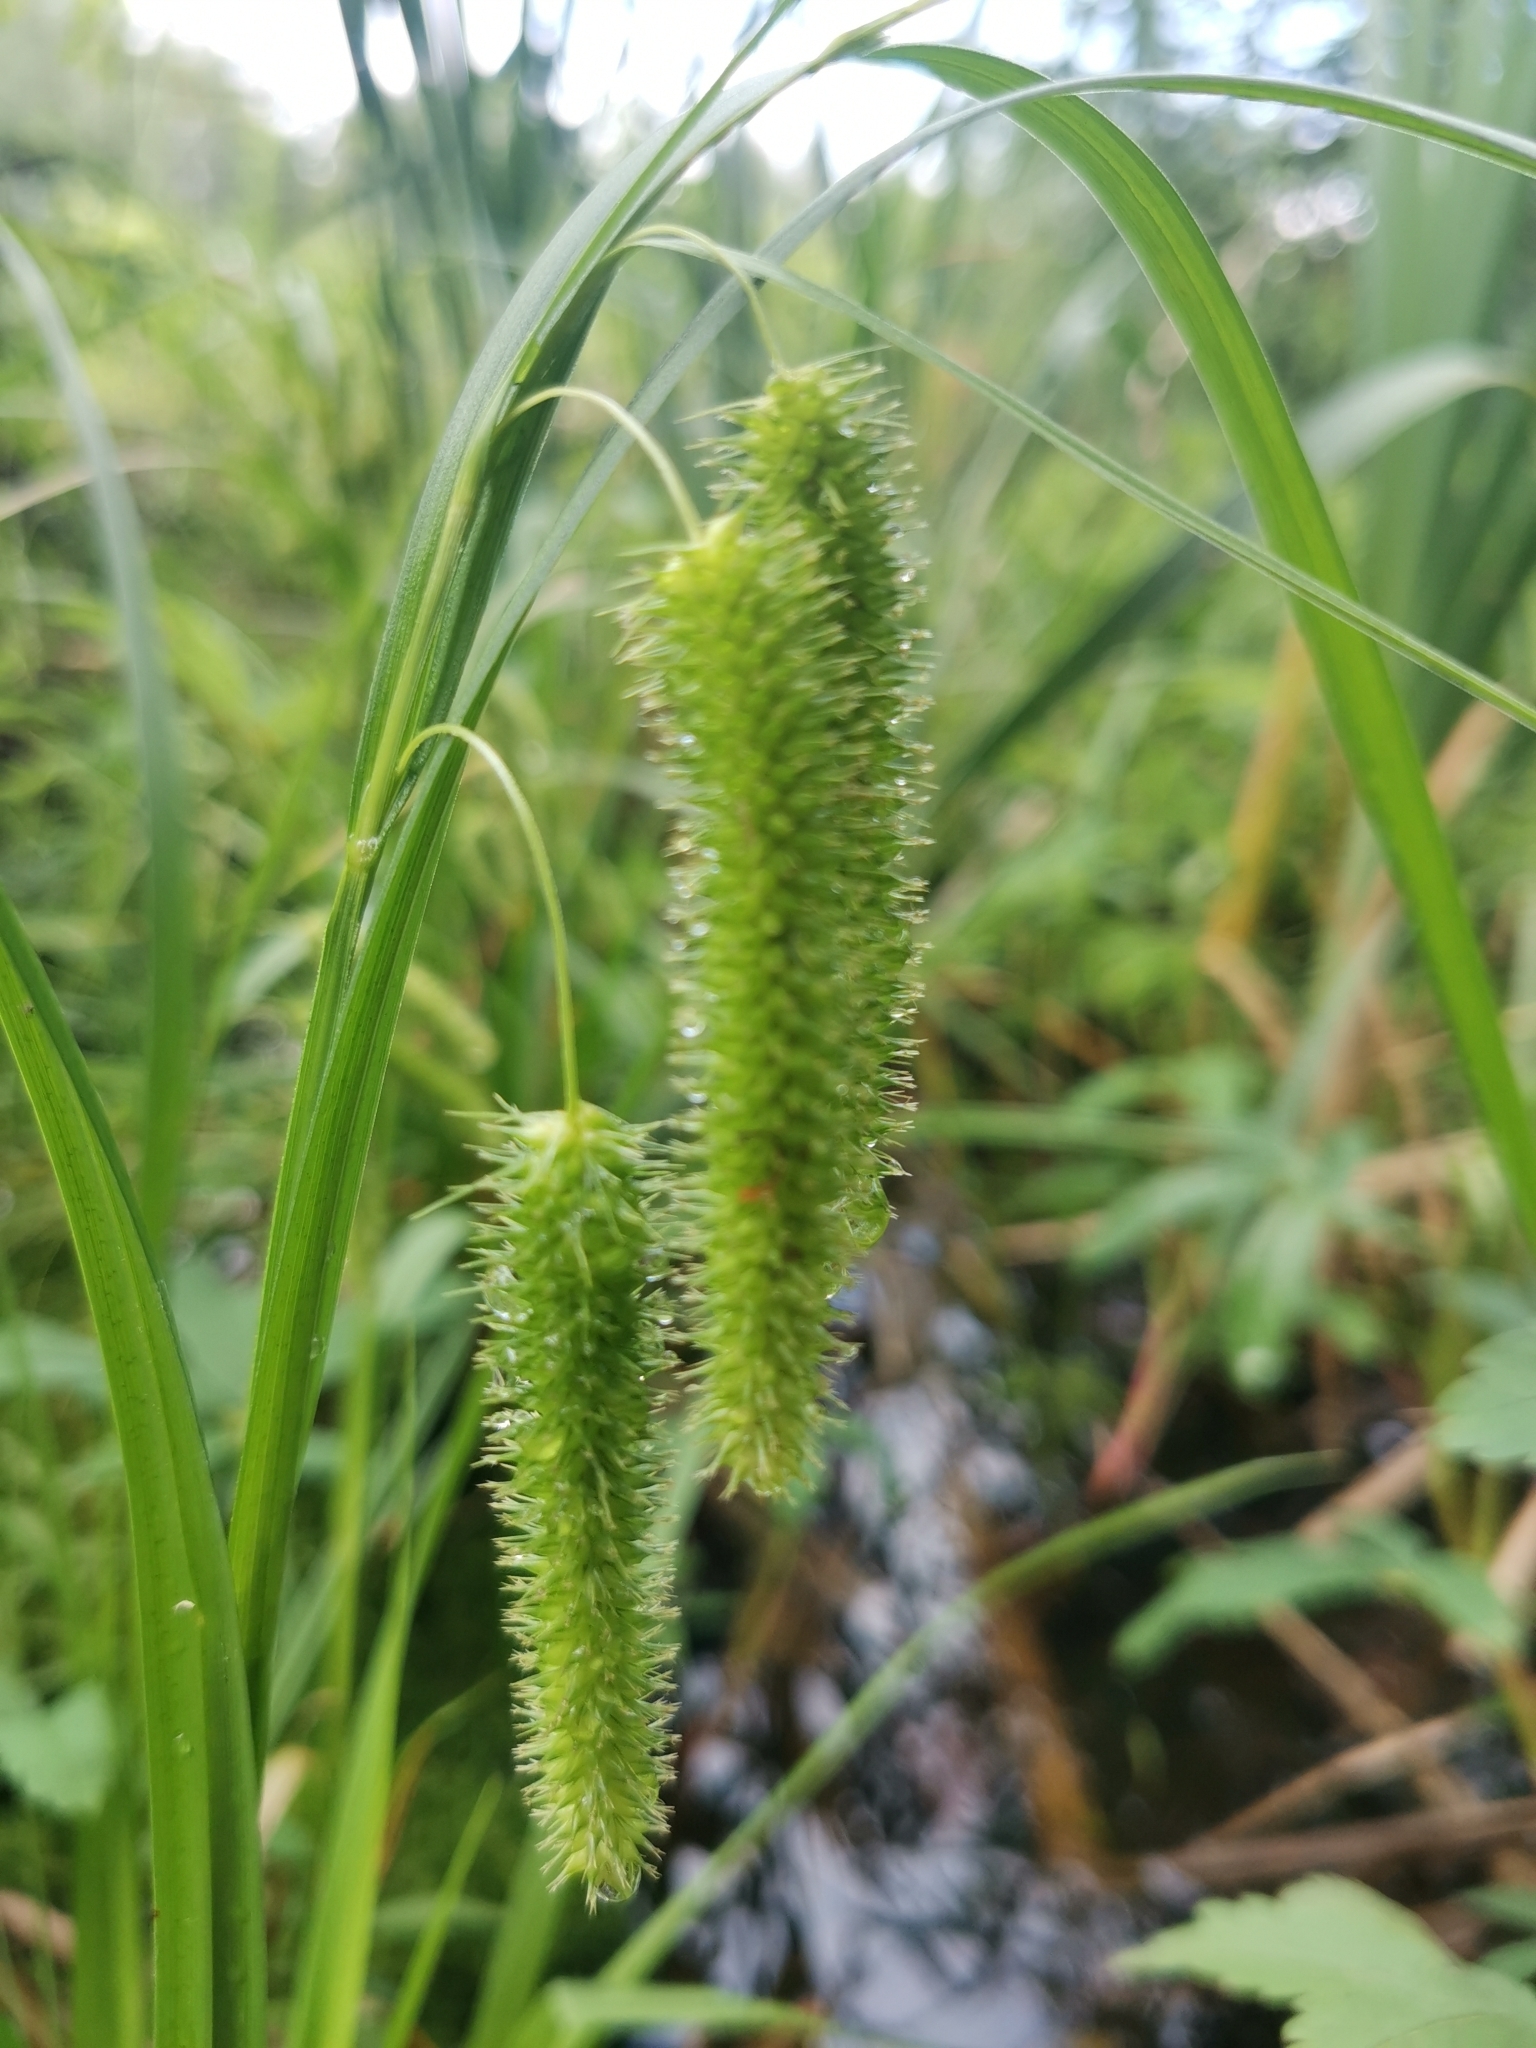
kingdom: Plantae
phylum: Tracheophyta
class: Liliopsida
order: Poales
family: Cyperaceae
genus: Carex
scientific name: Carex pseudocyperus
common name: Cyperus sedge
